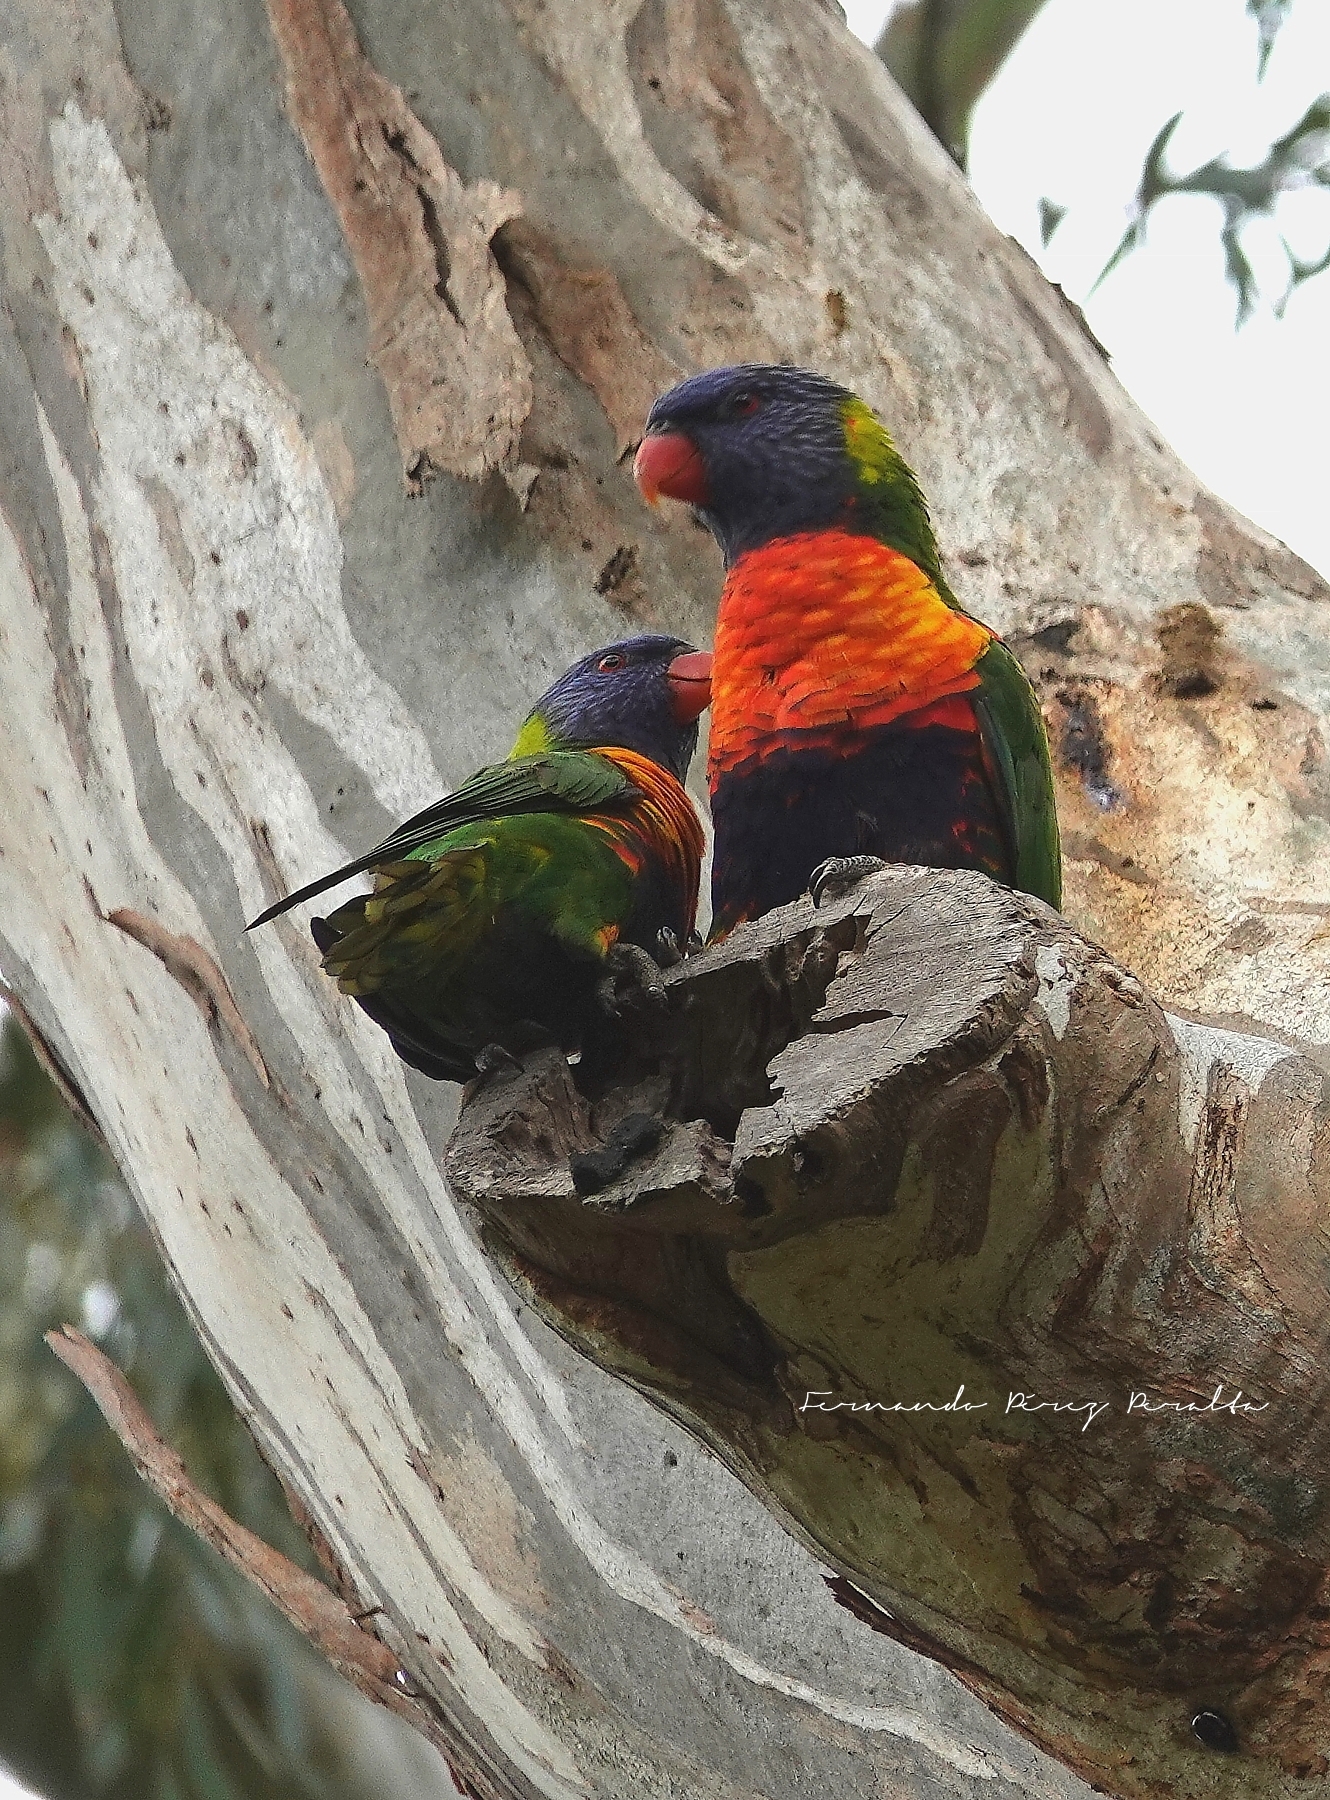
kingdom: Animalia
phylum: Chordata
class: Aves
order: Psittaciformes
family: Psittacidae
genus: Trichoglossus
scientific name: Trichoglossus haematodus
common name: Coconut lorikeet
